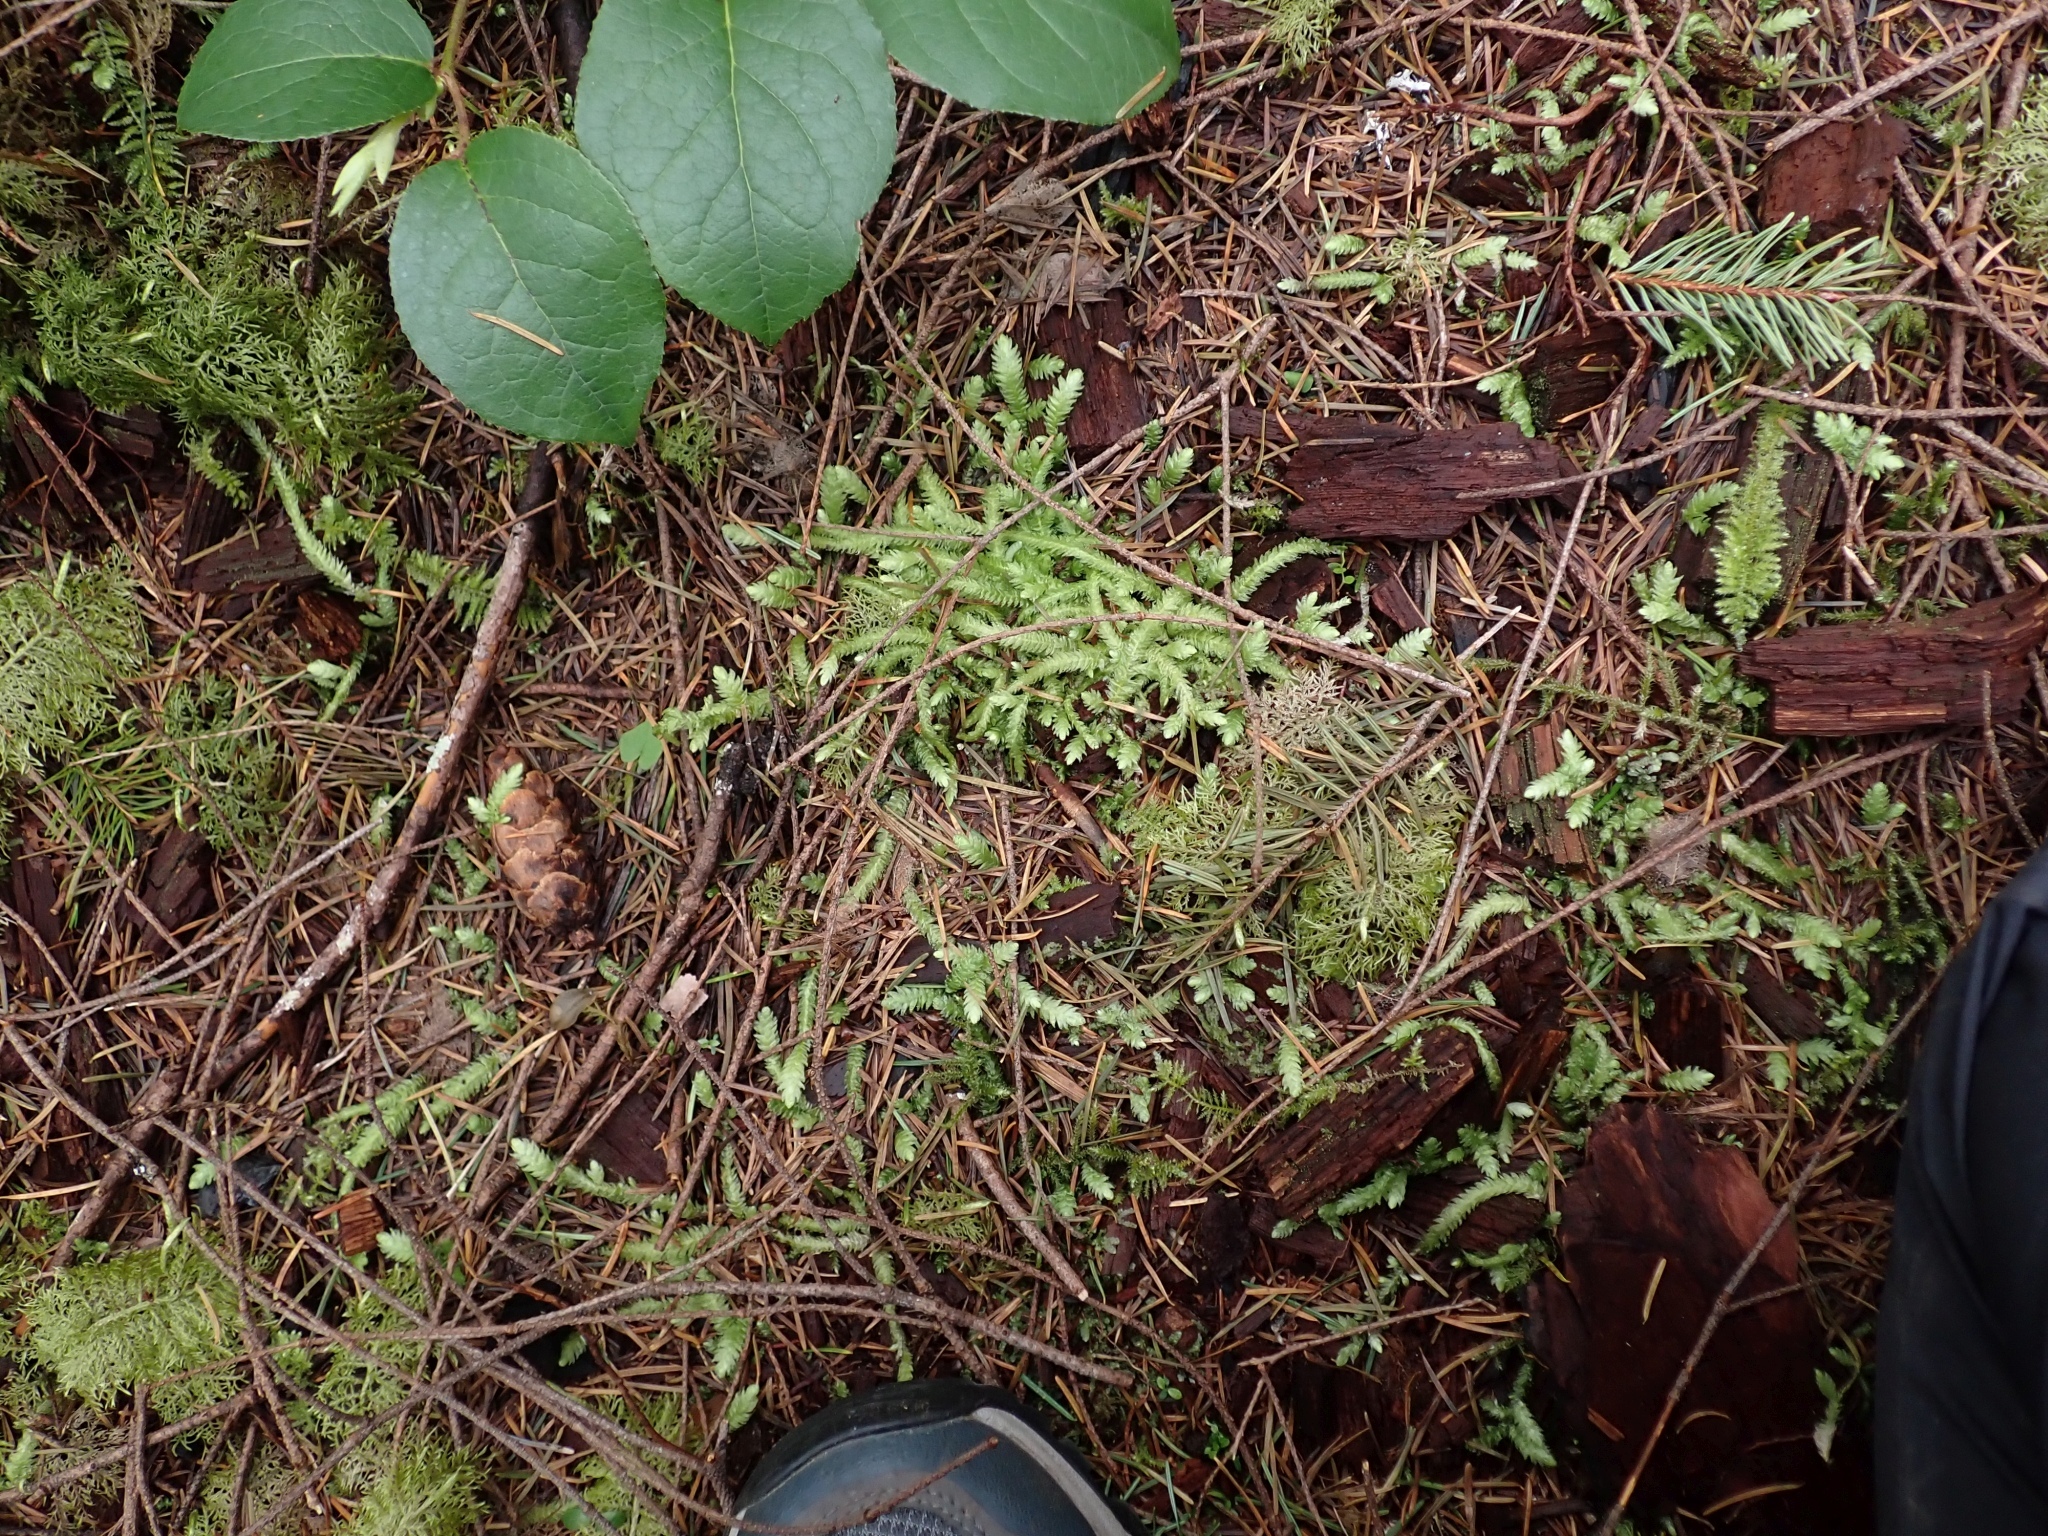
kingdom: Plantae
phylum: Bryophyta
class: Bryopsida
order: Hypnales
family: Plagiotheciaceae
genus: Plagiothecium
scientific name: Plagiothecium undulatum
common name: Waved silk-moss
